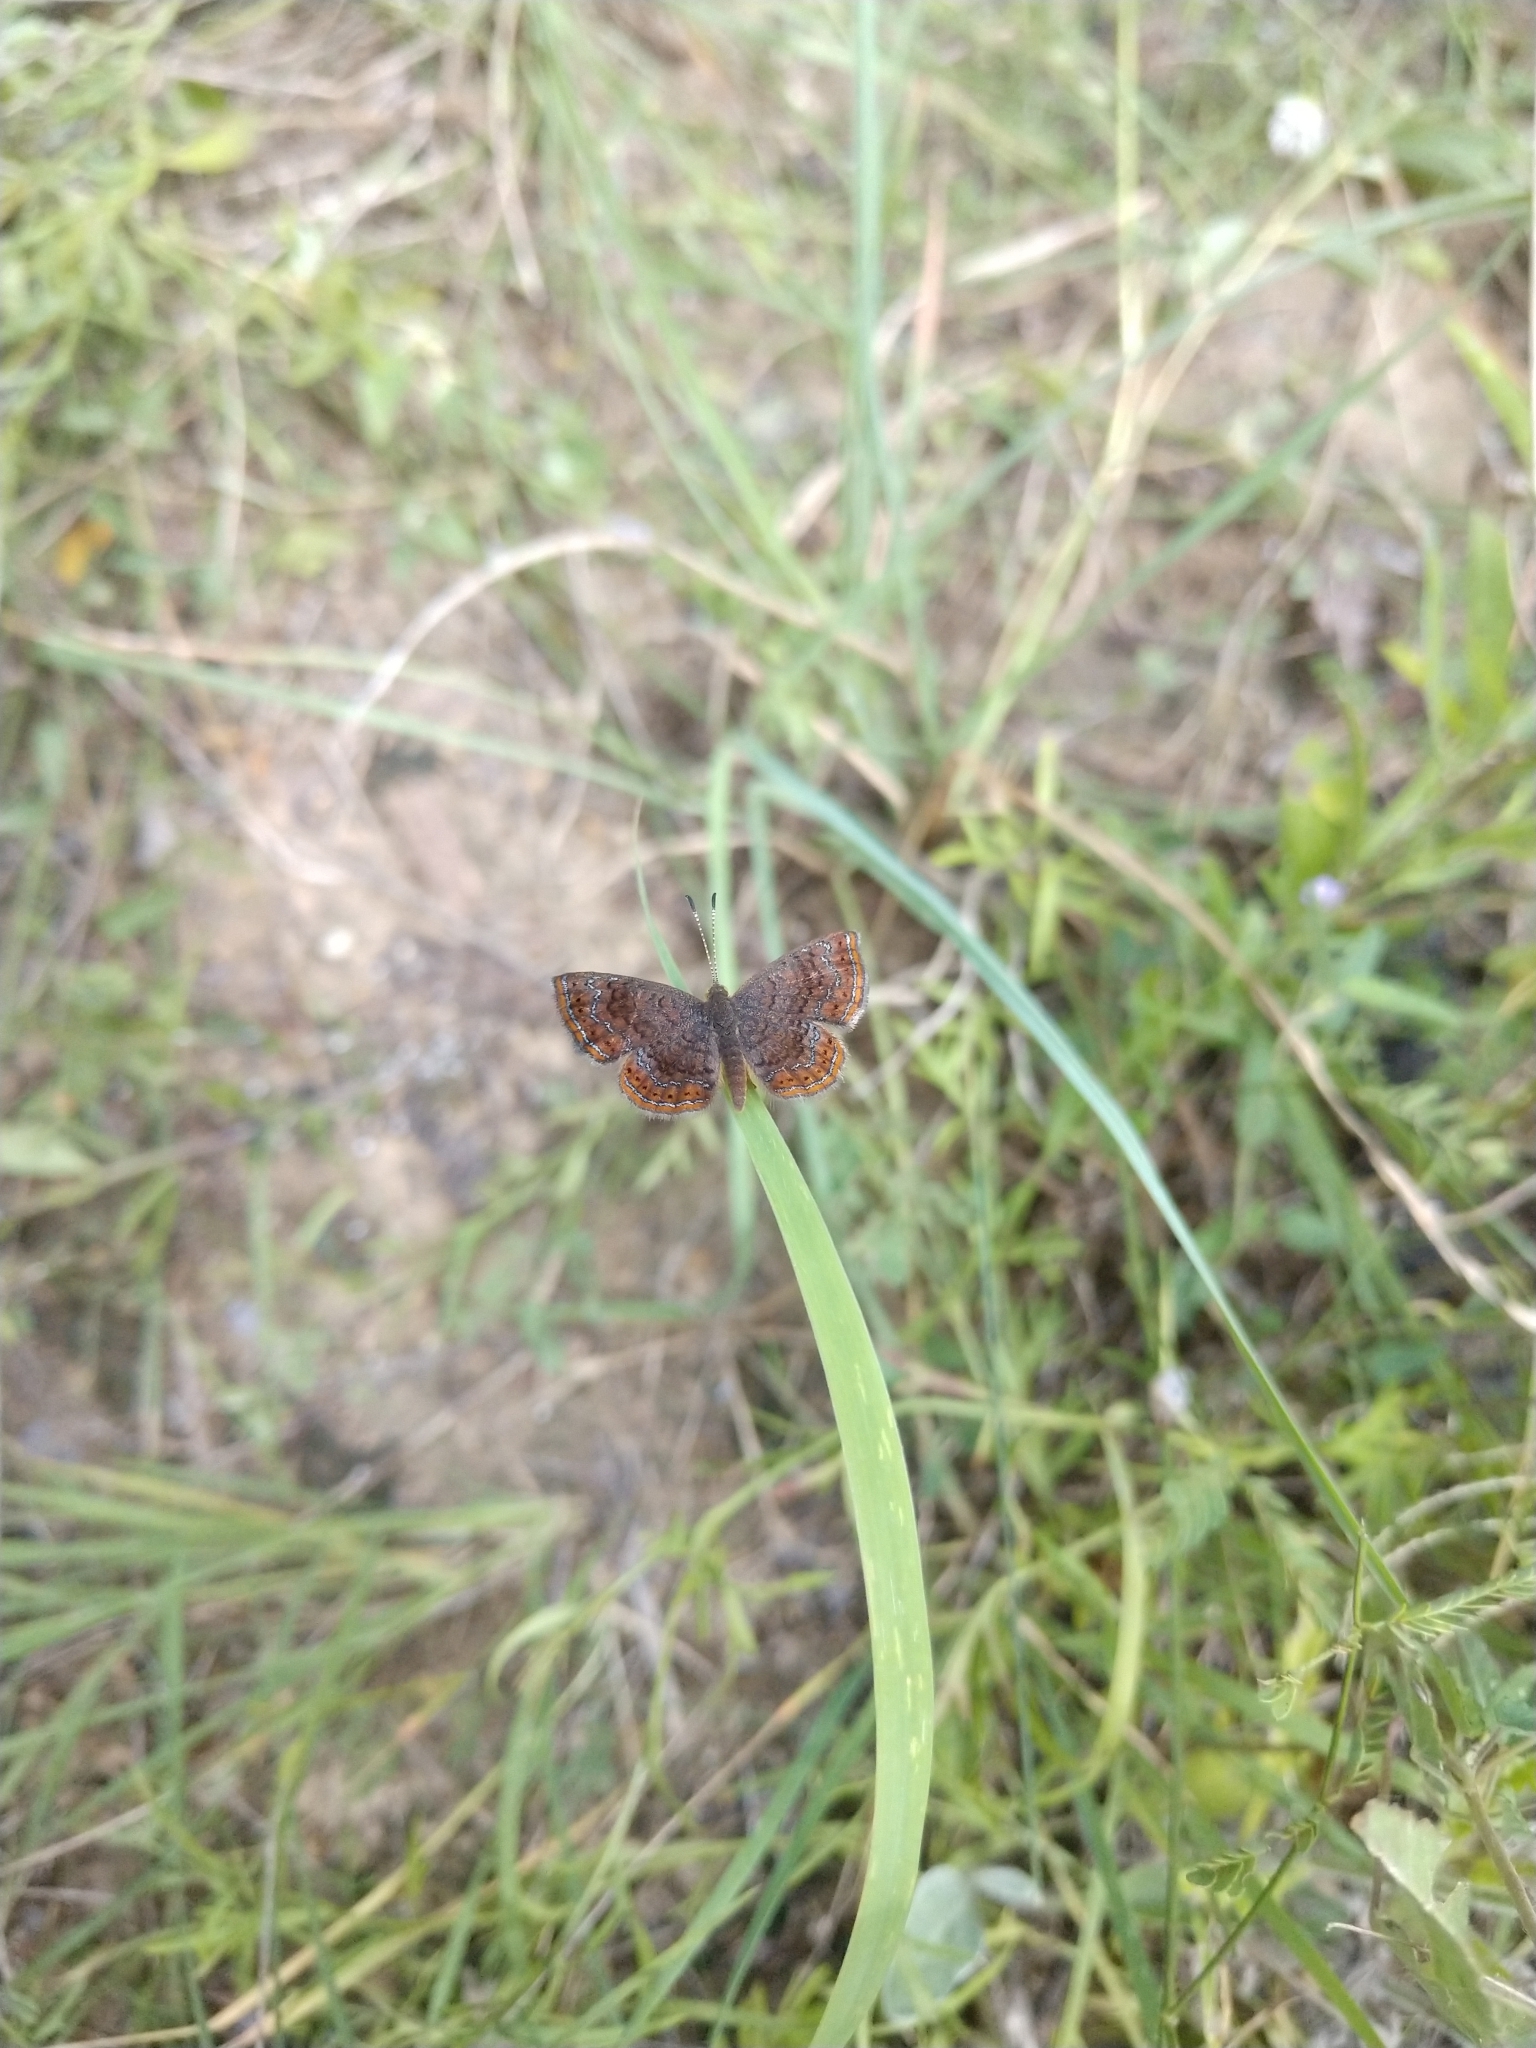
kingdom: Animalia
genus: Calephelis
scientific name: Calephelis perditalis
